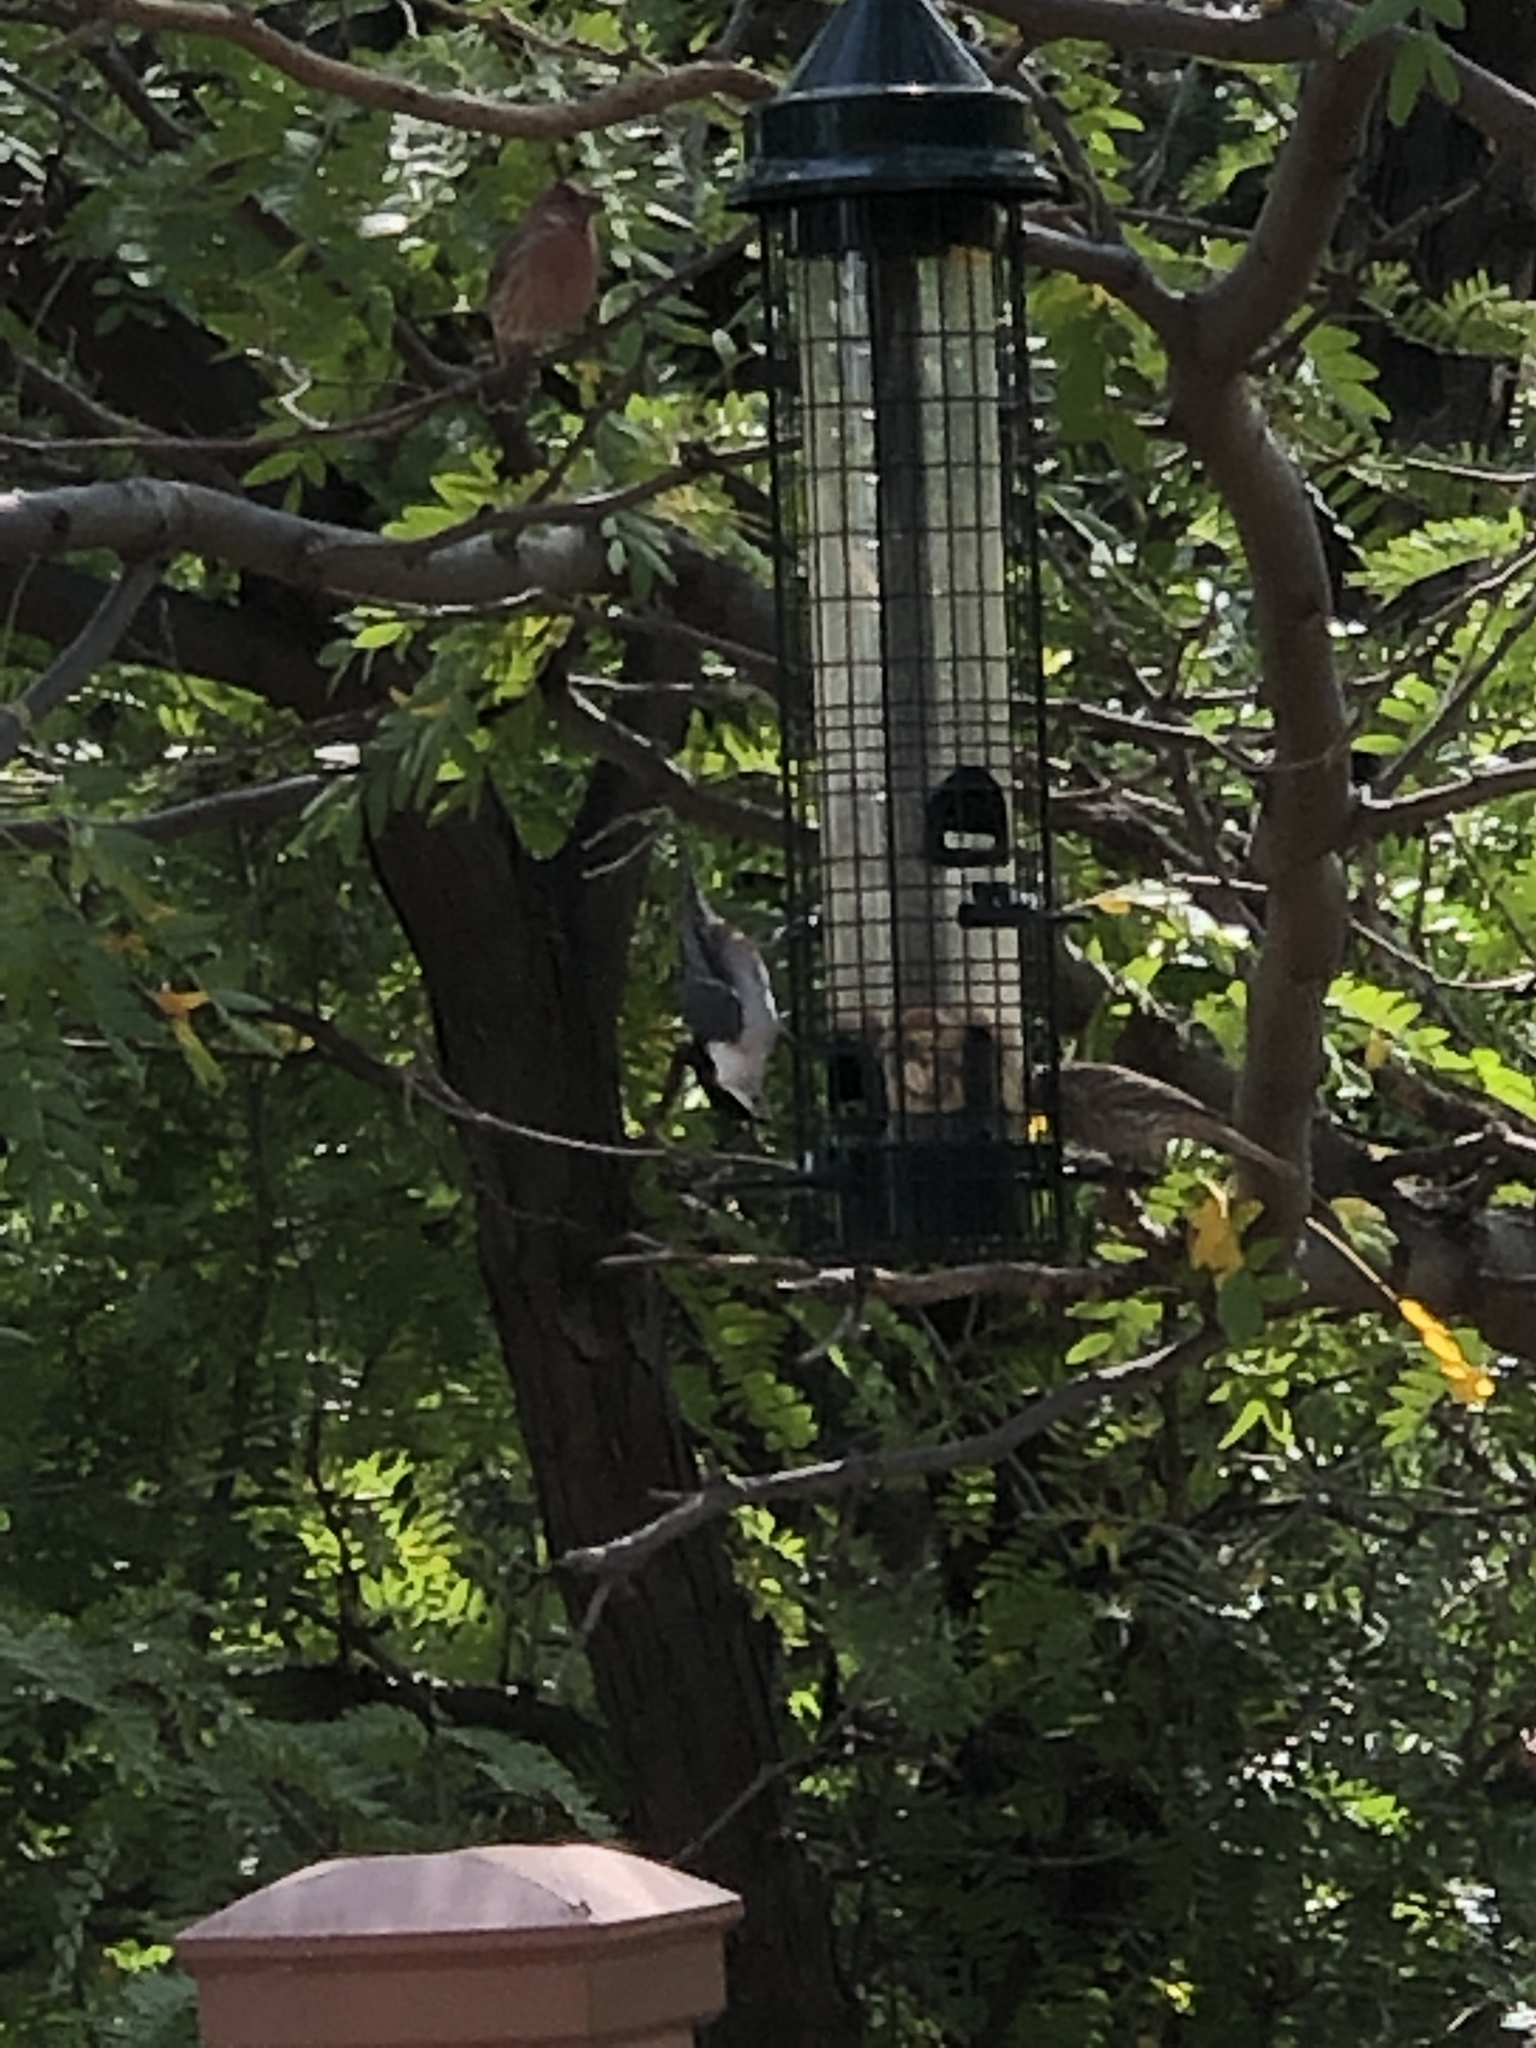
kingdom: Animalia
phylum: Chordata
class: Aves
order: Passeriformes
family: Sittidae
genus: Sitta
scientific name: Sitta carolinensis
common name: White-breasted nuthatch
